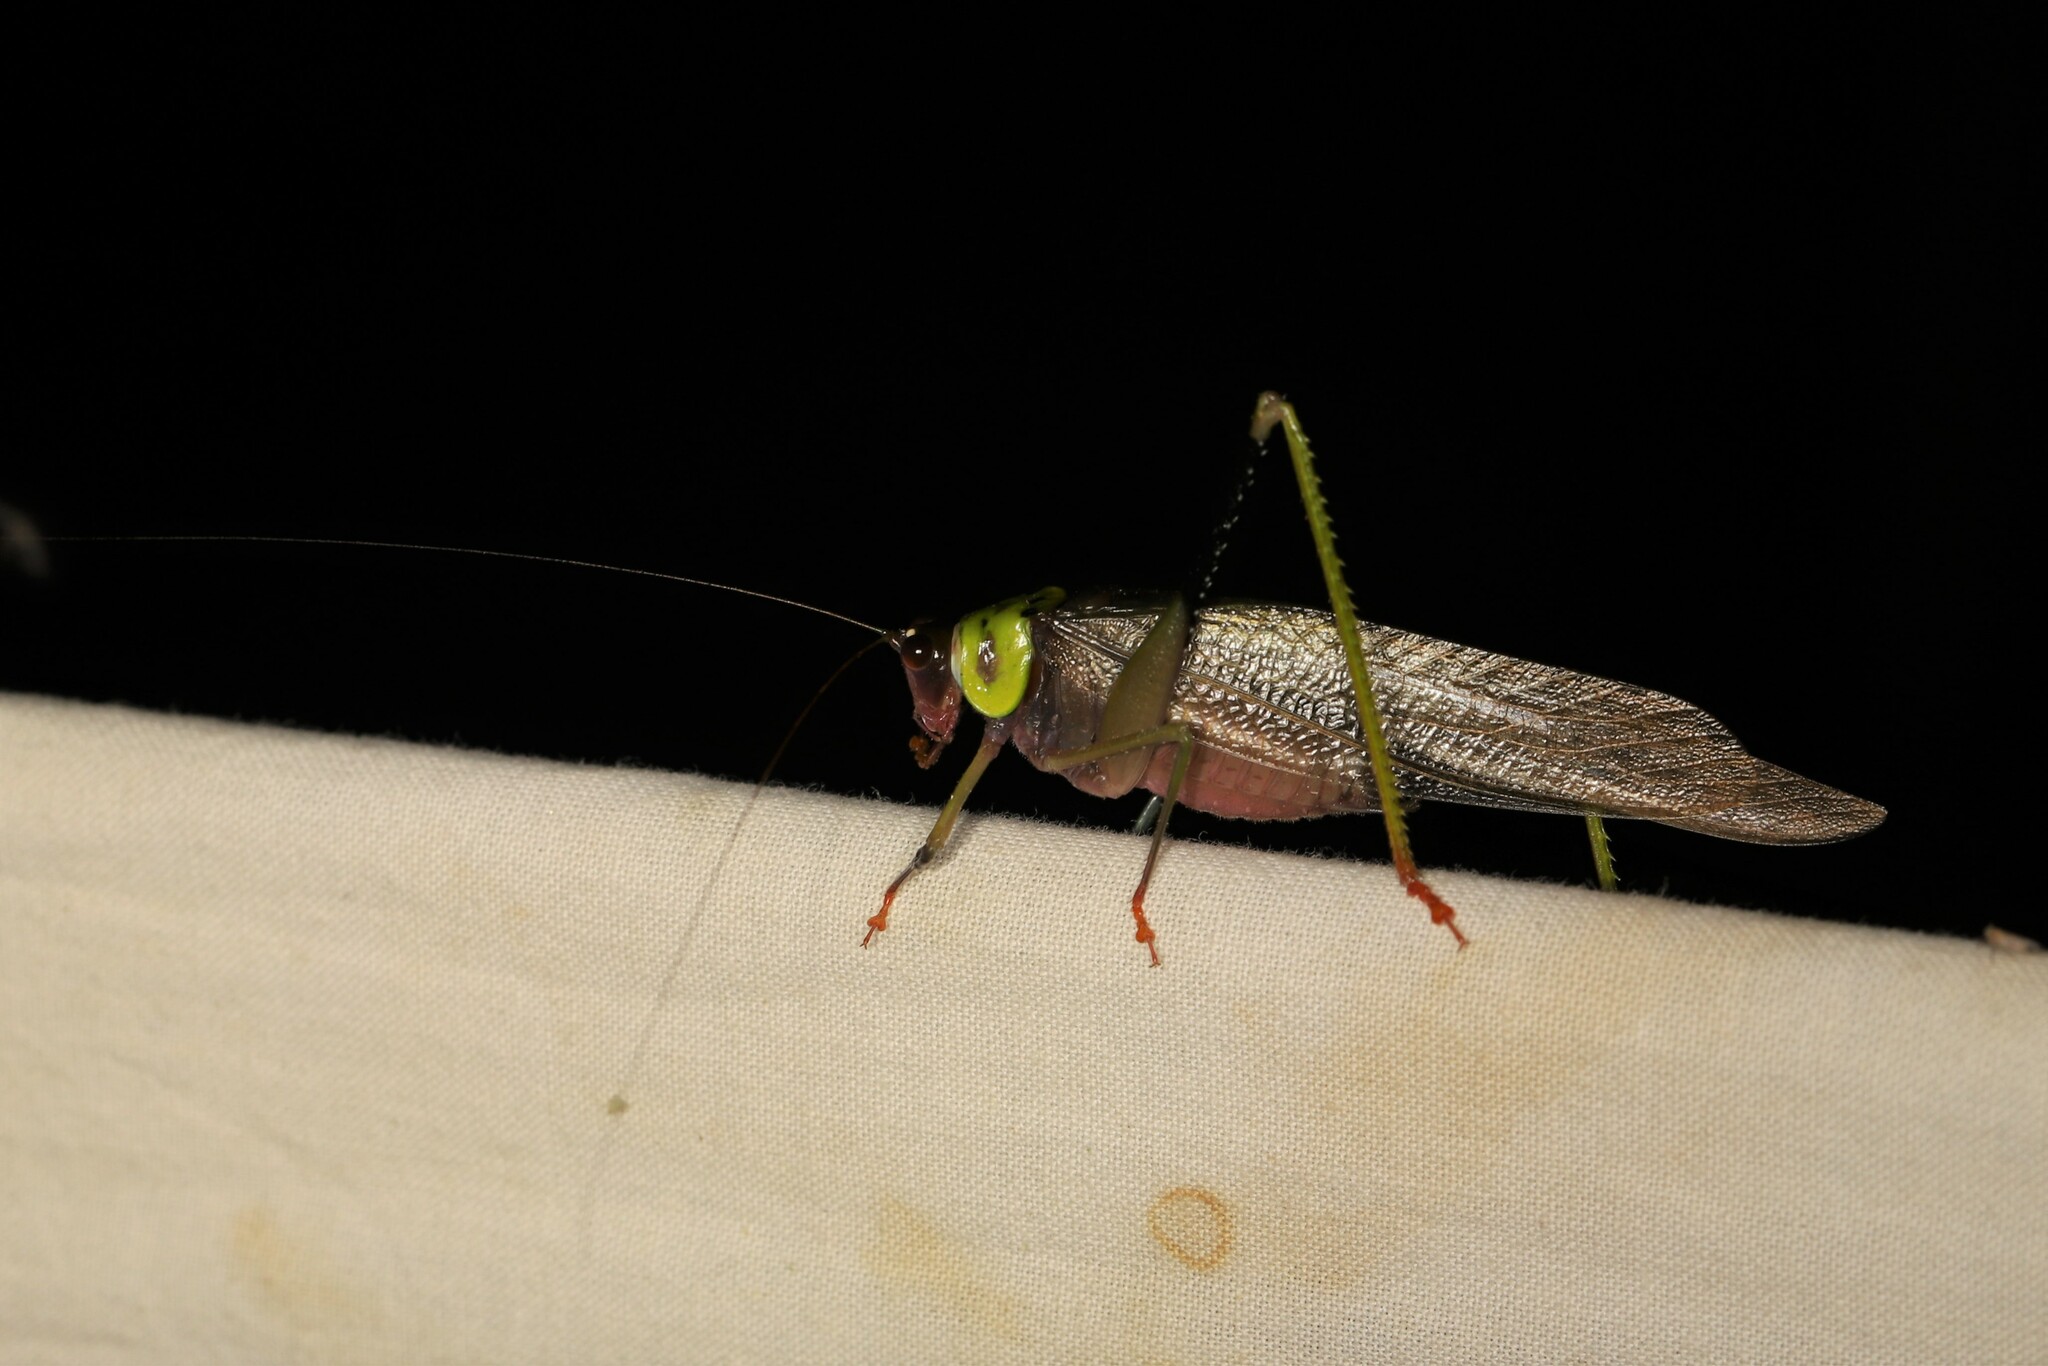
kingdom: Animalia
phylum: Arthropoda
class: Insecta
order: Orthoptera
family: Tettigoniidae
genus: Euceraia
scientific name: Euceraia insignis
